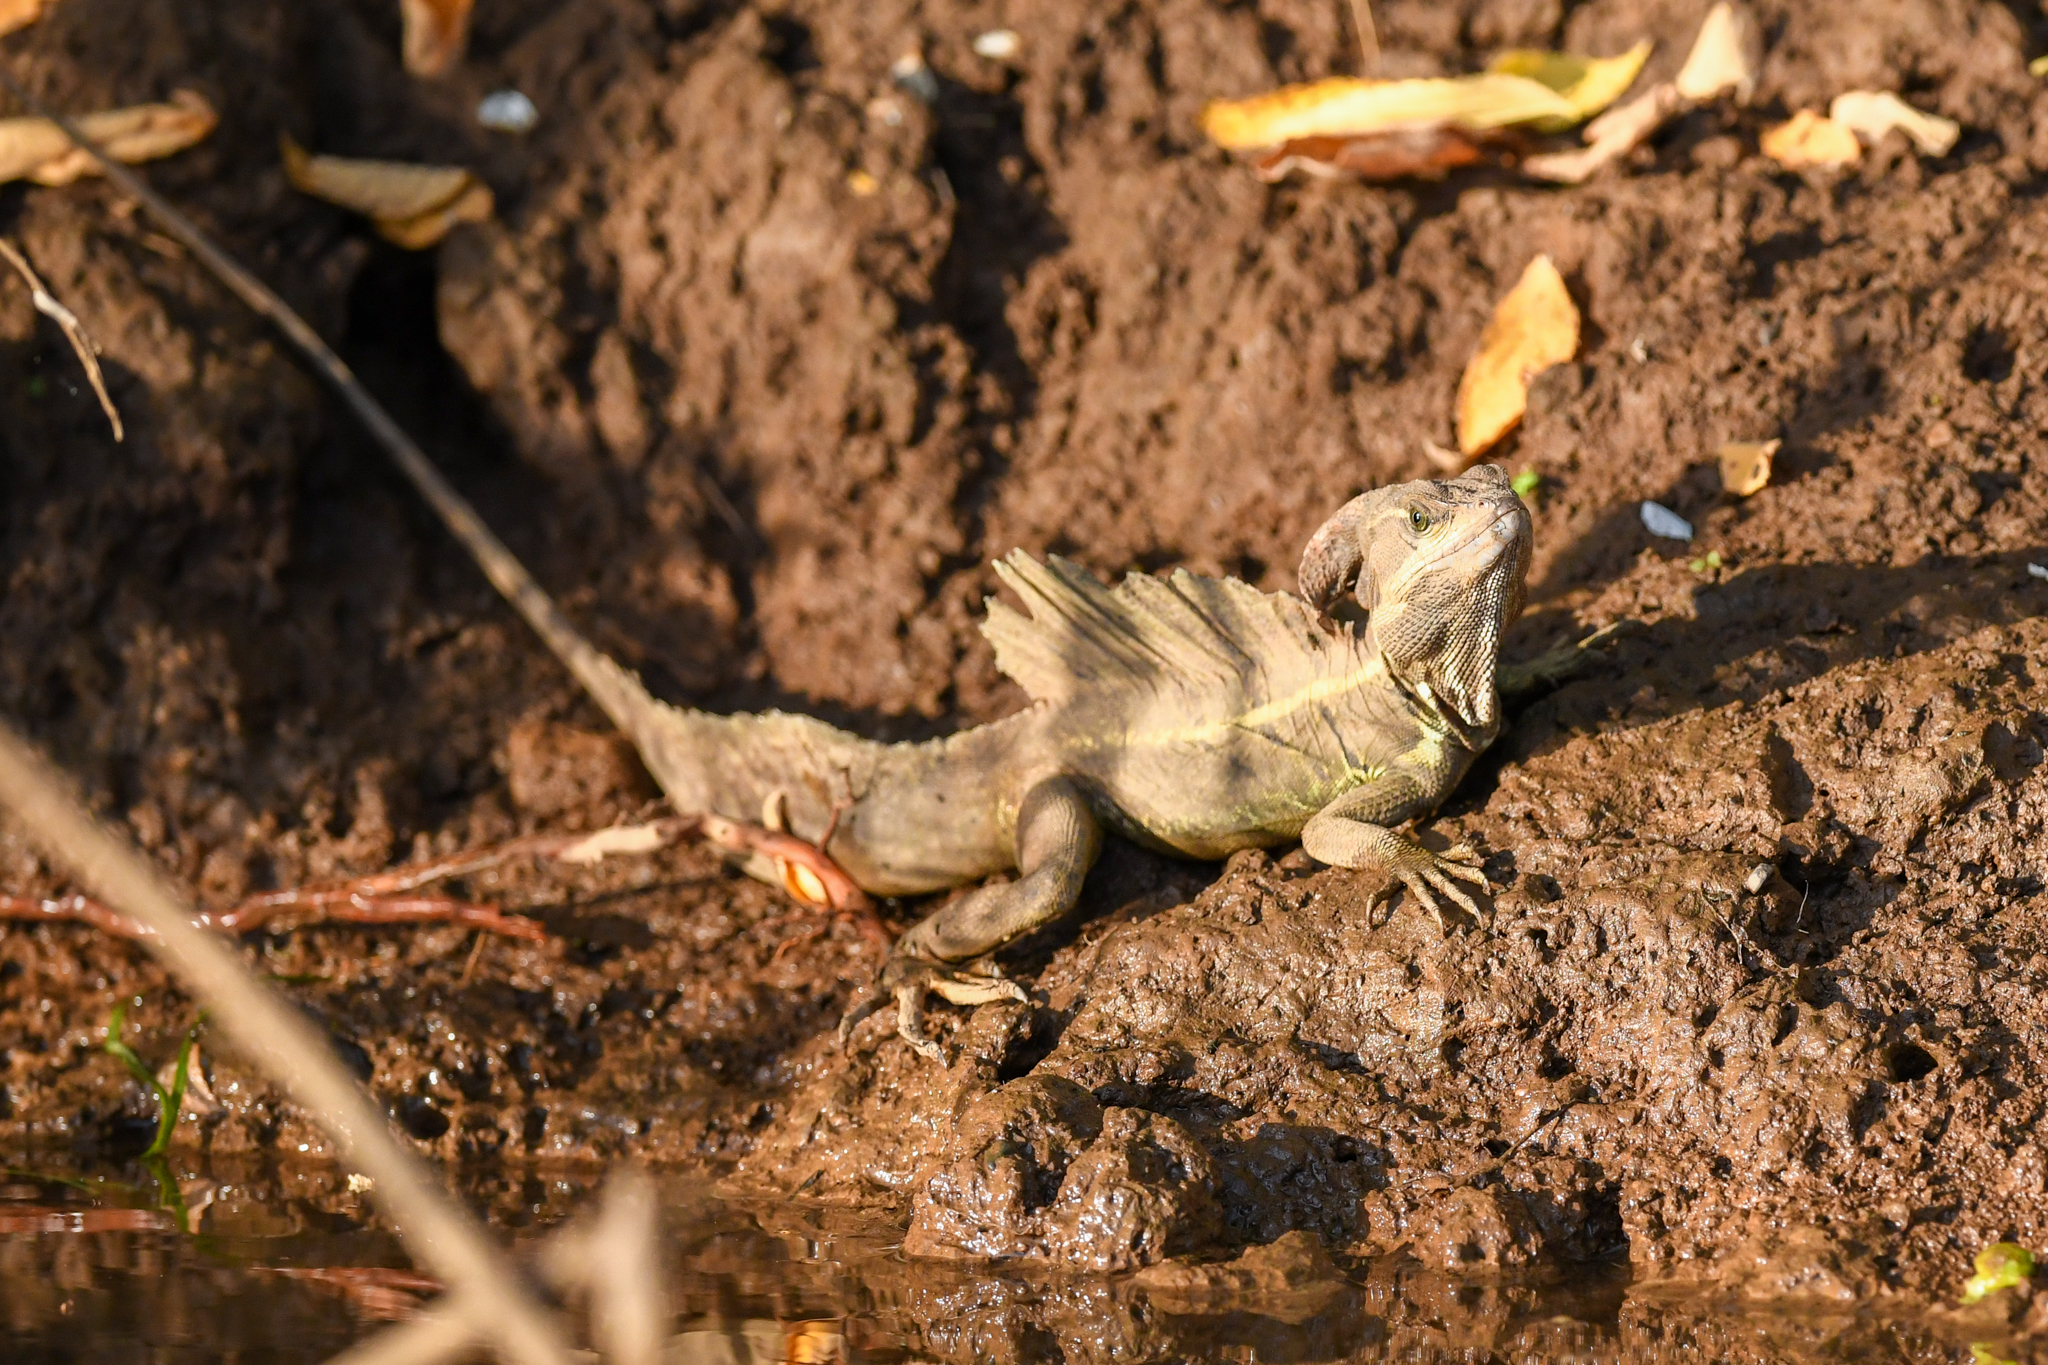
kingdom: Animalia
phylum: Chordata
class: Squamata
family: Corytophanidae
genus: Basiliscus
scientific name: Basiliscus basiliscus
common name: Common basilisk
